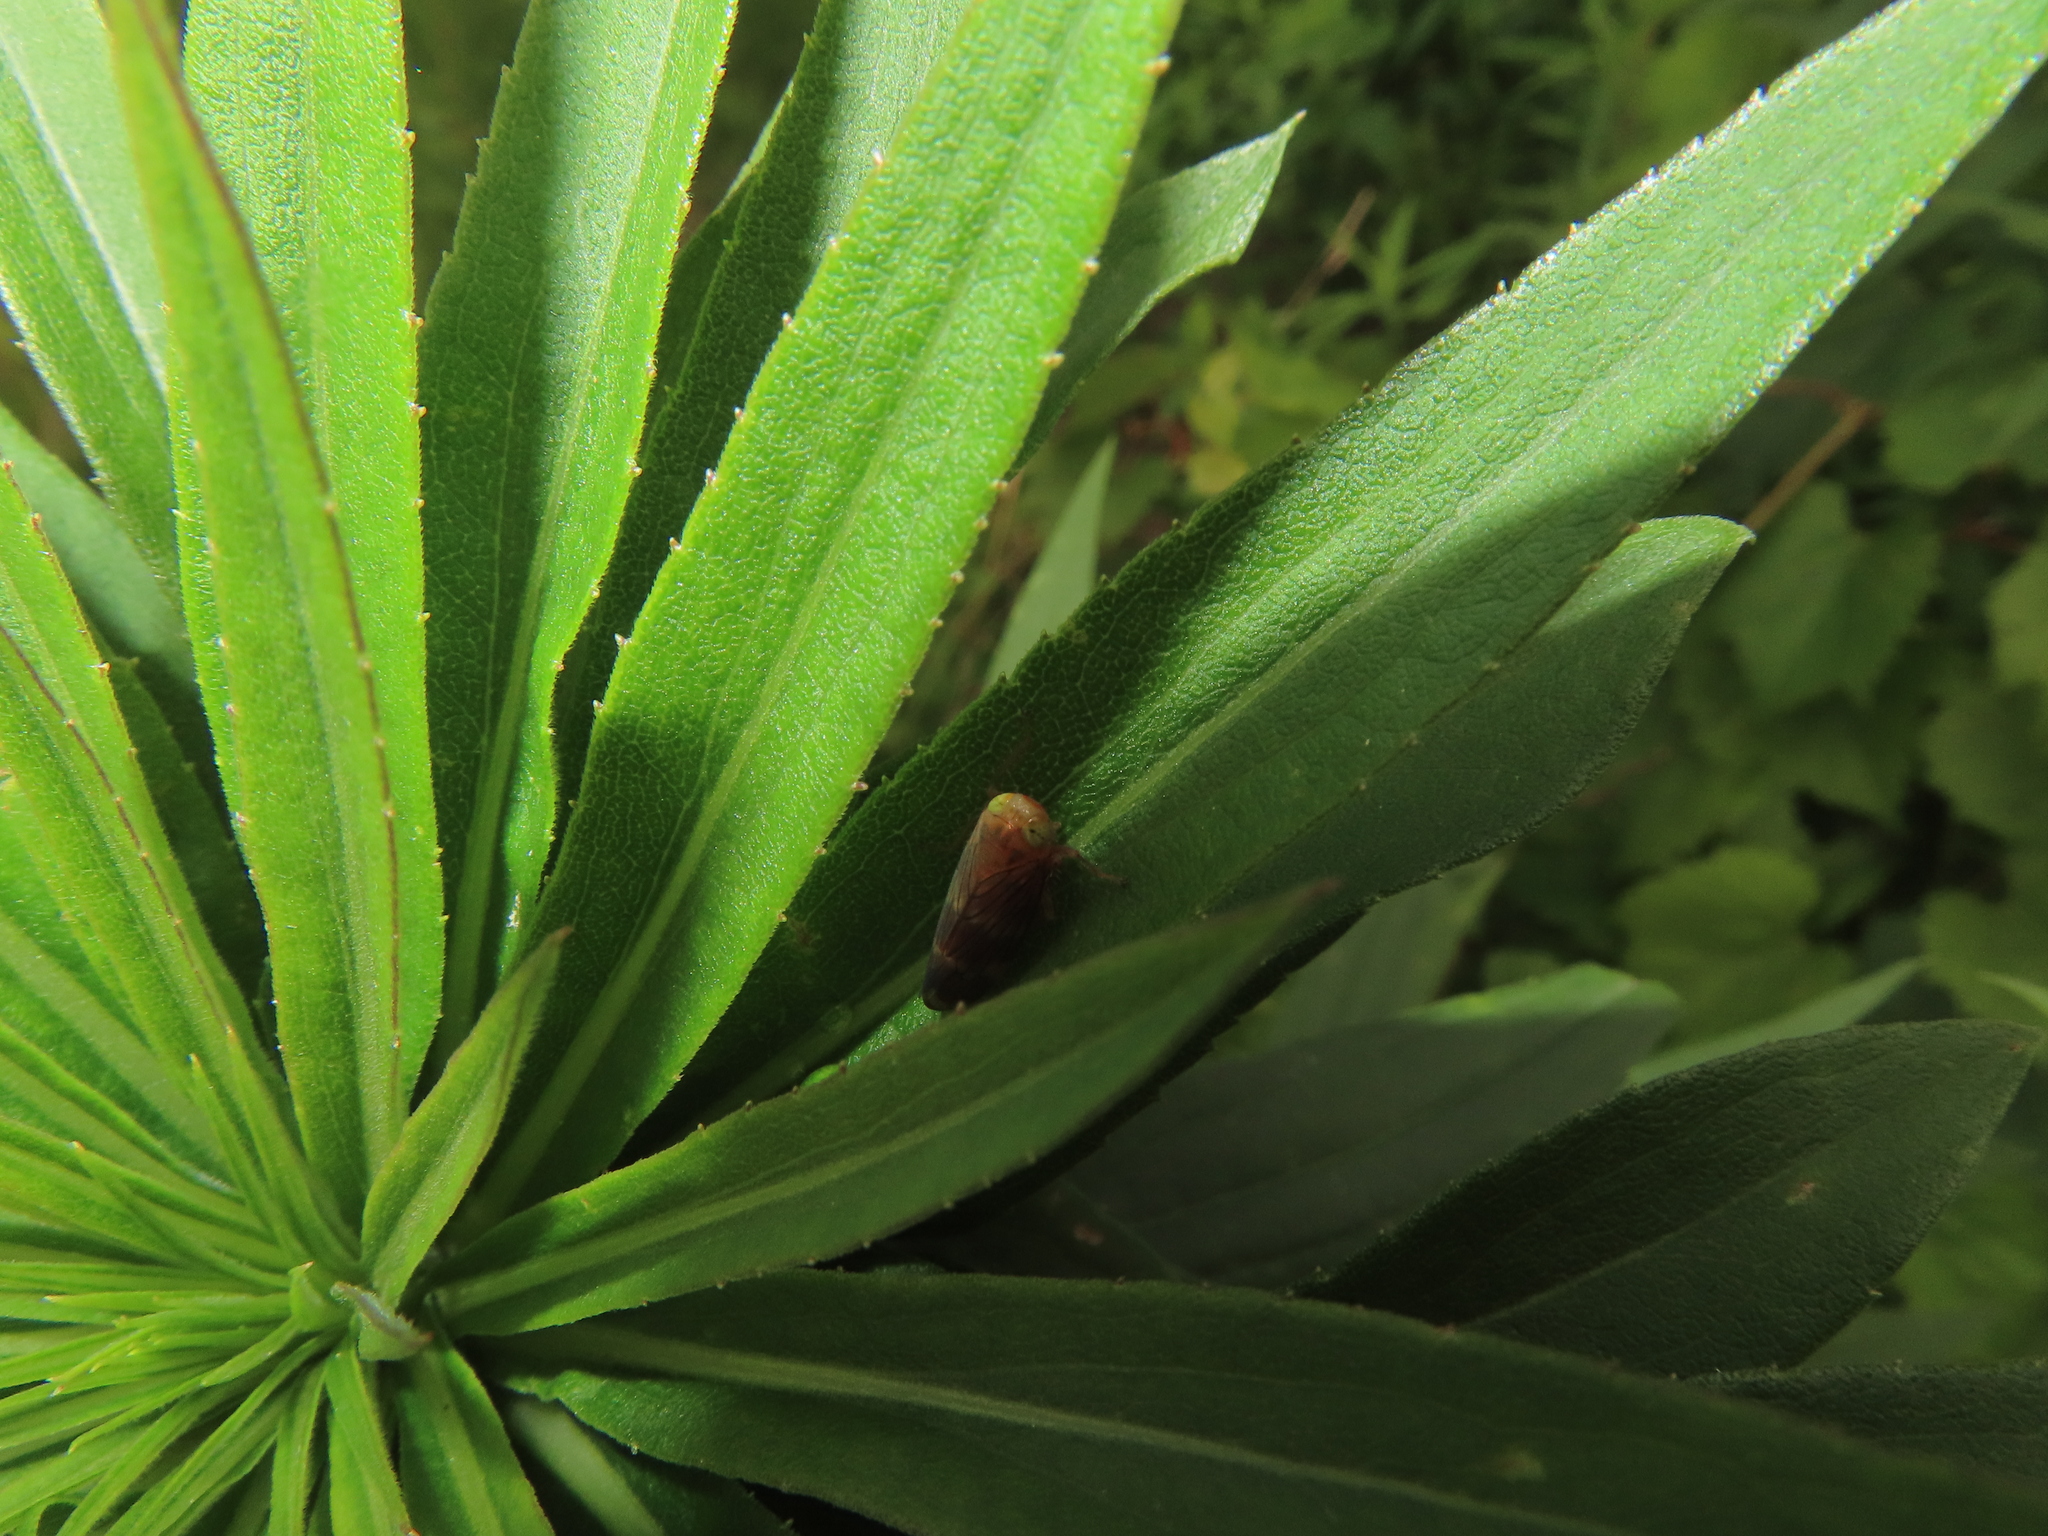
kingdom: Animalia
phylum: Arthropoda
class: Insecta
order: Hemiptera
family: Cicadellidae
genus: Jikradia
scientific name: Jikradia olitoria
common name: Coppery leafhopper
